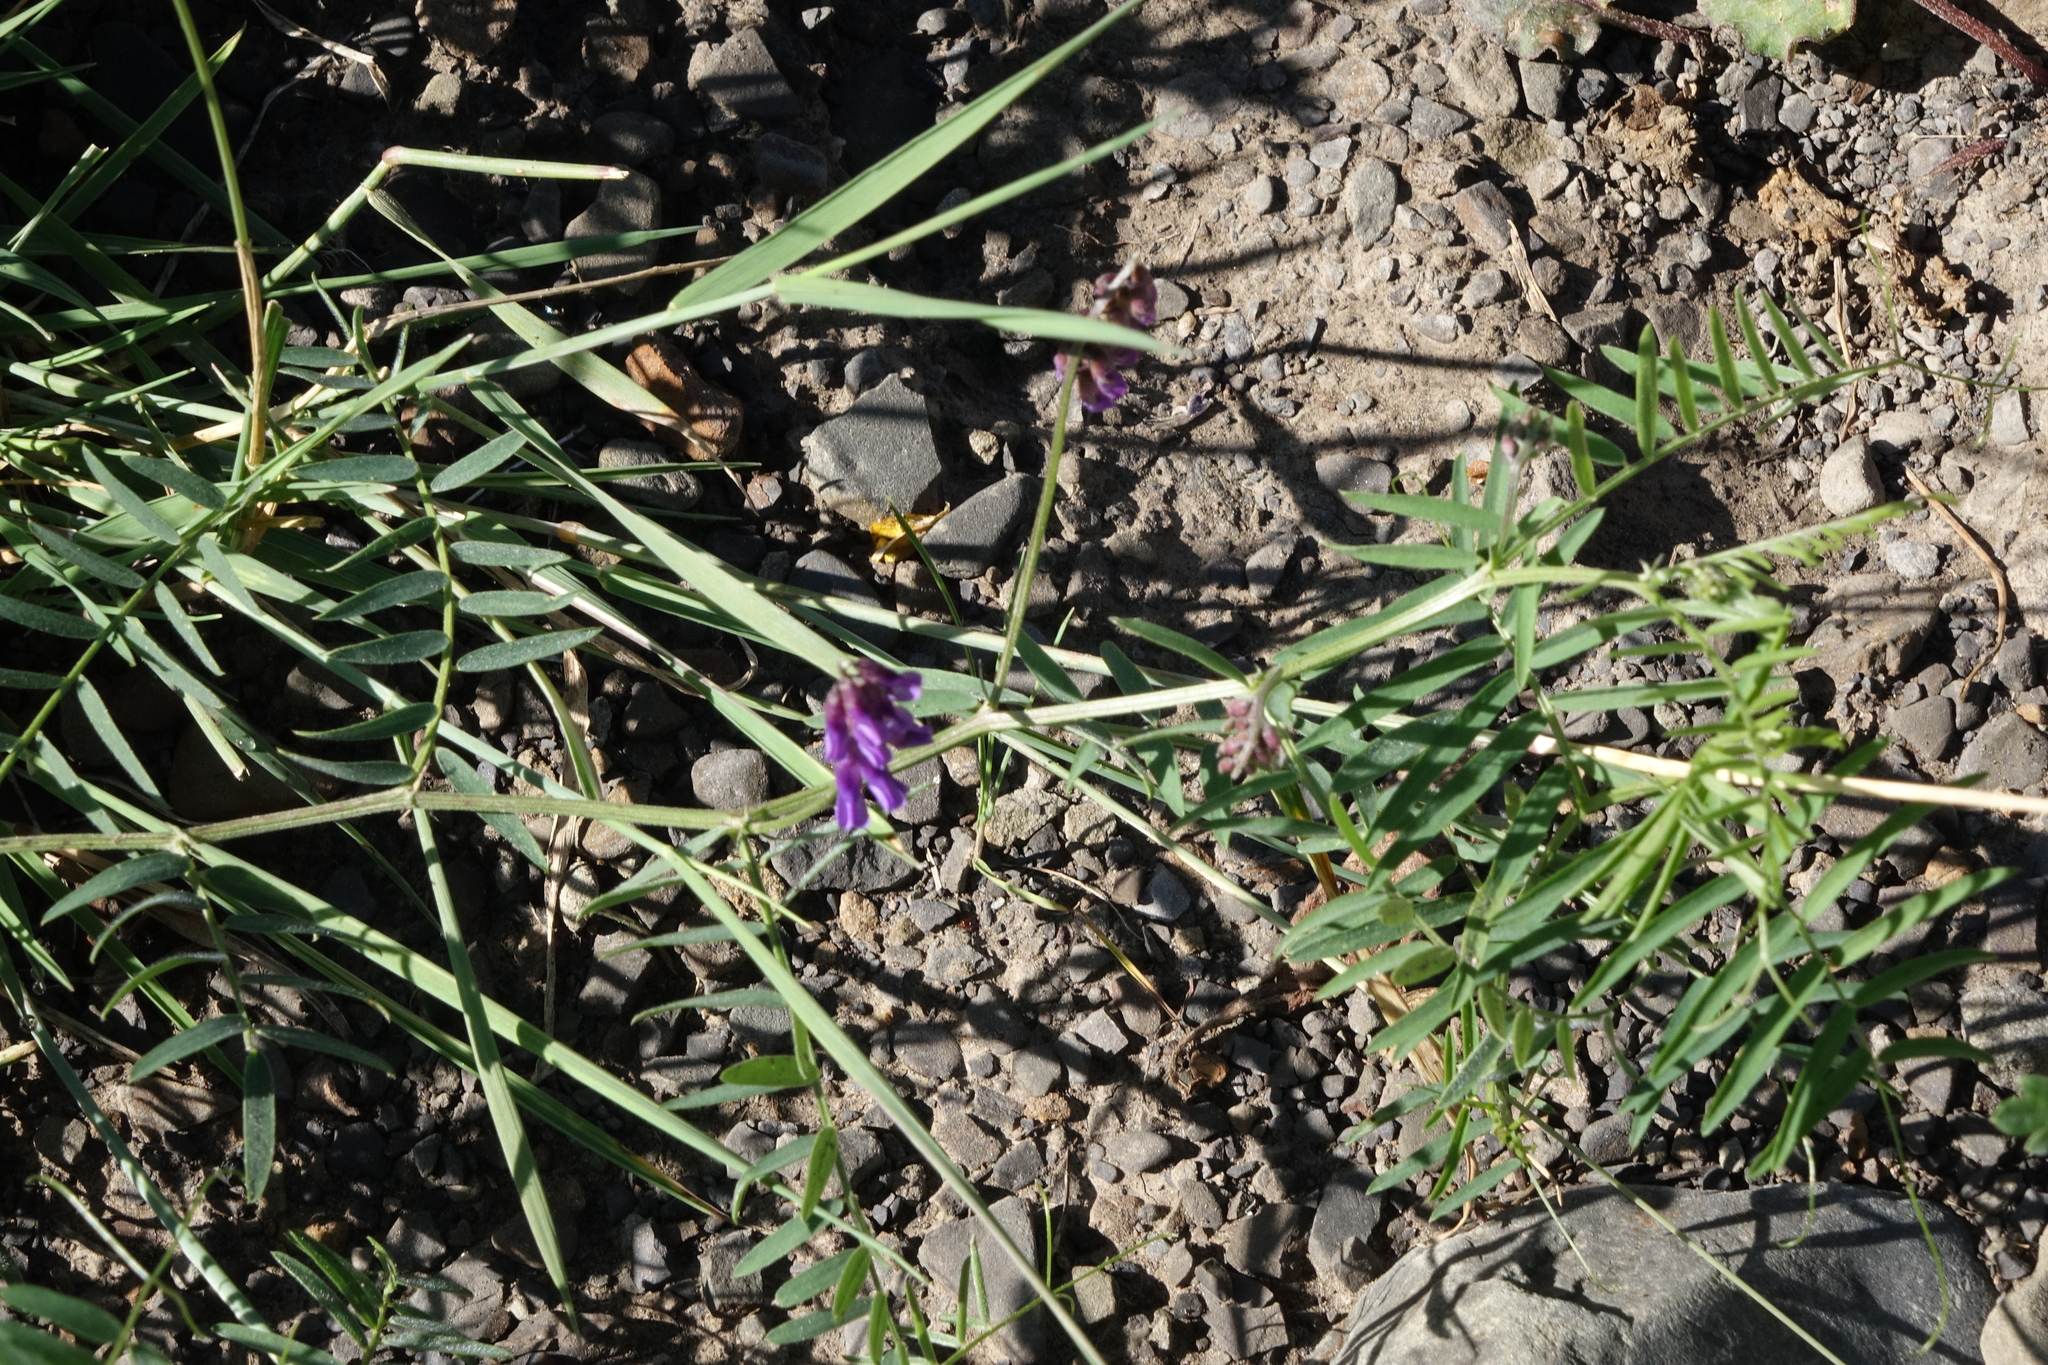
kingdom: Plantae
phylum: Tracheophyta
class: Magnoliopsida
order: Fabales
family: Fabaceae
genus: Vicia
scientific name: Vicia cracca
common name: Bird vetch
